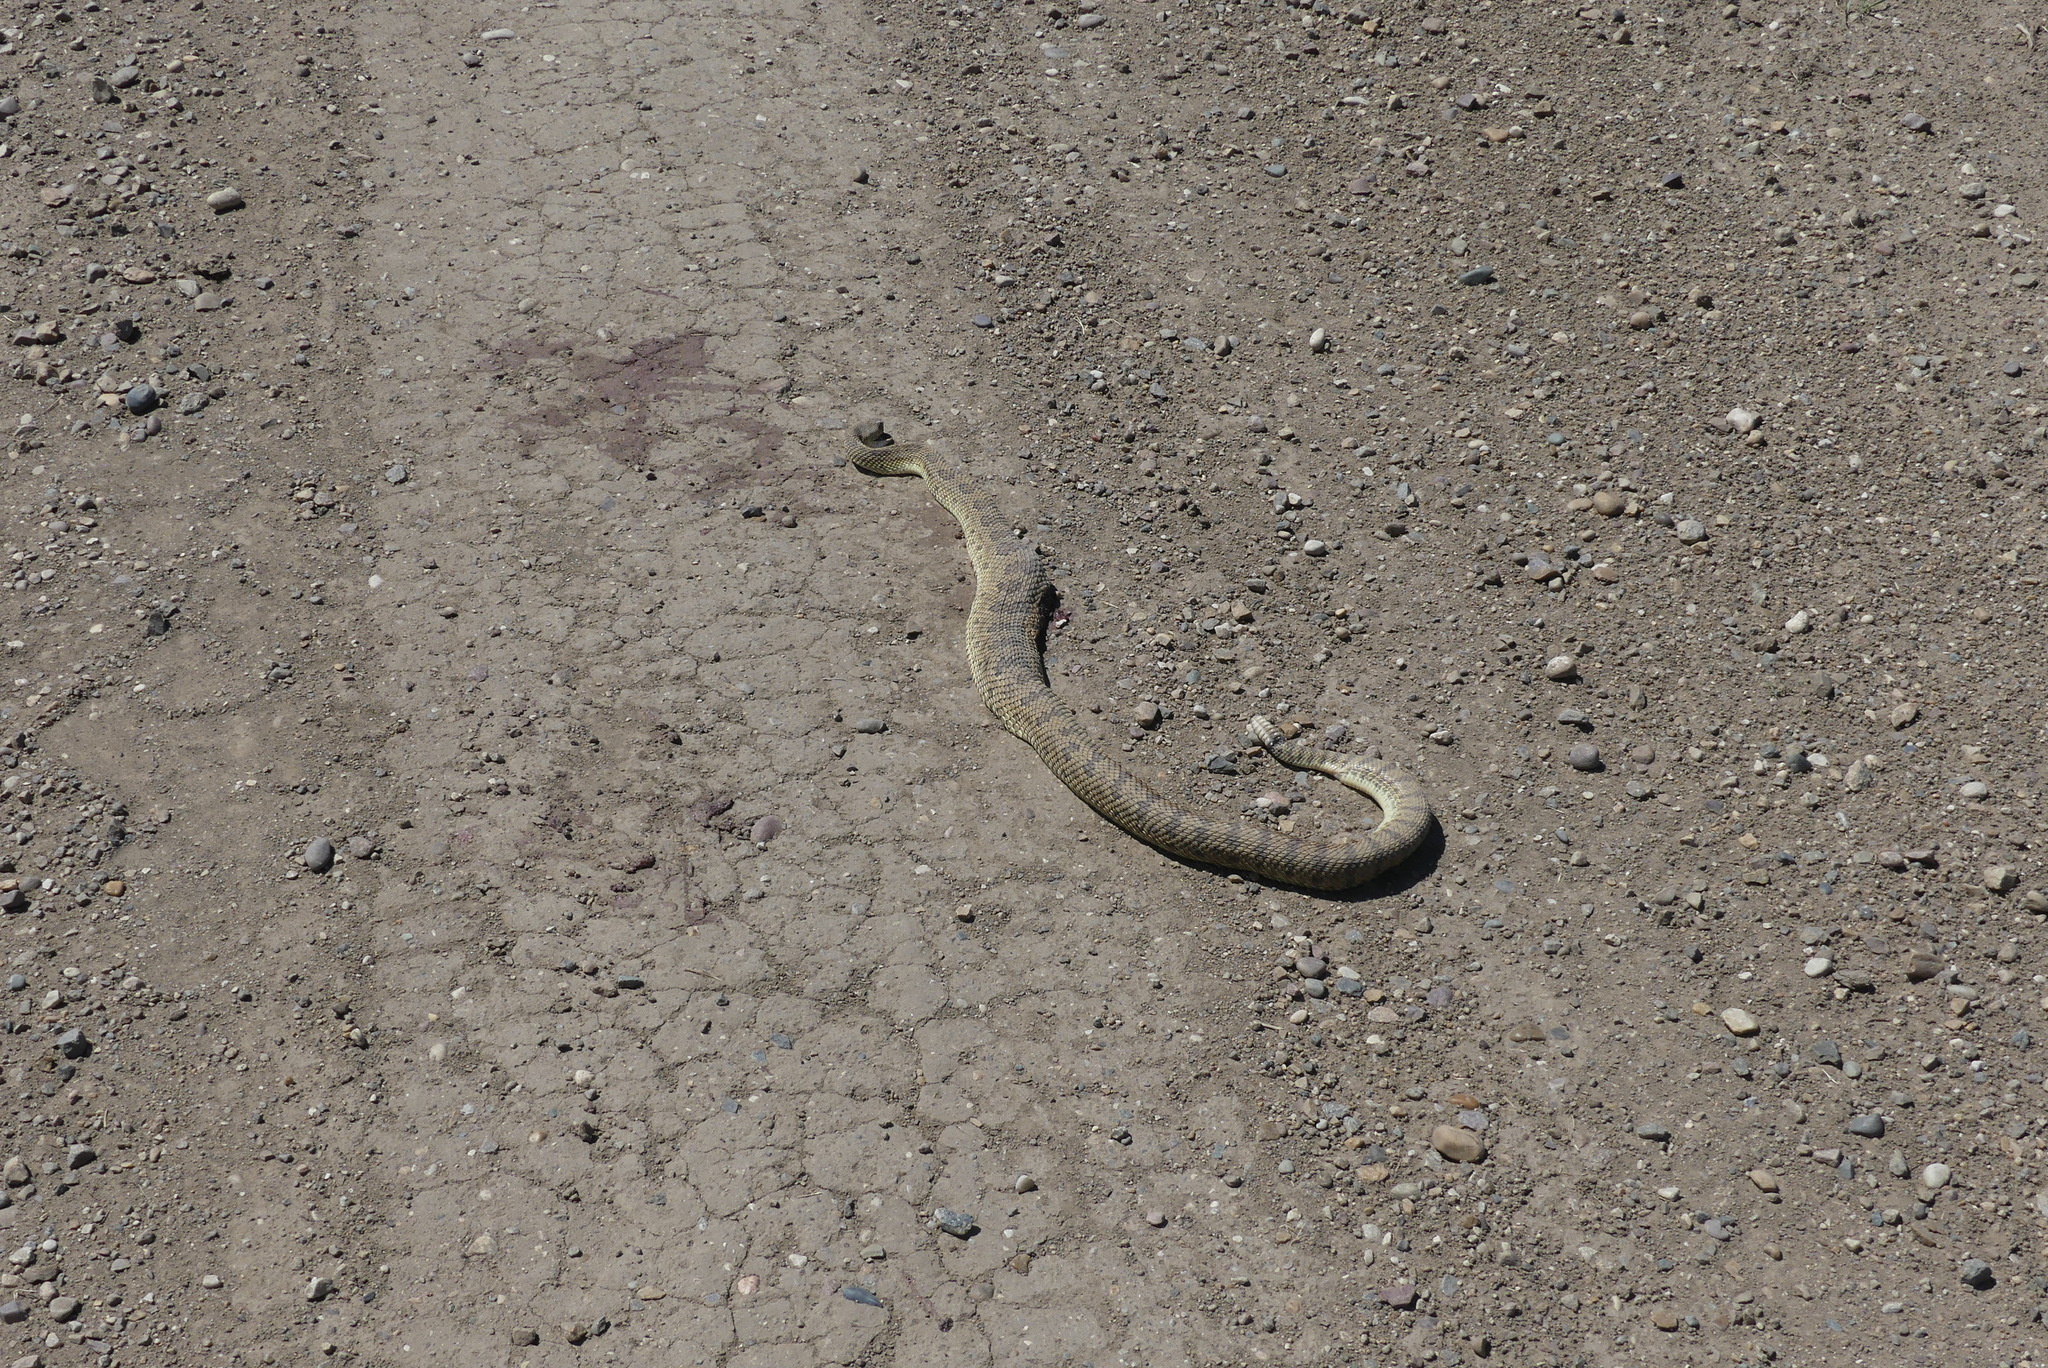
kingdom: Animalia
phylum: Chordata
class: Squamata
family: Viperidae
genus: Crotalus
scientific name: Crotalus viridis
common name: Prairie rattlesnake
